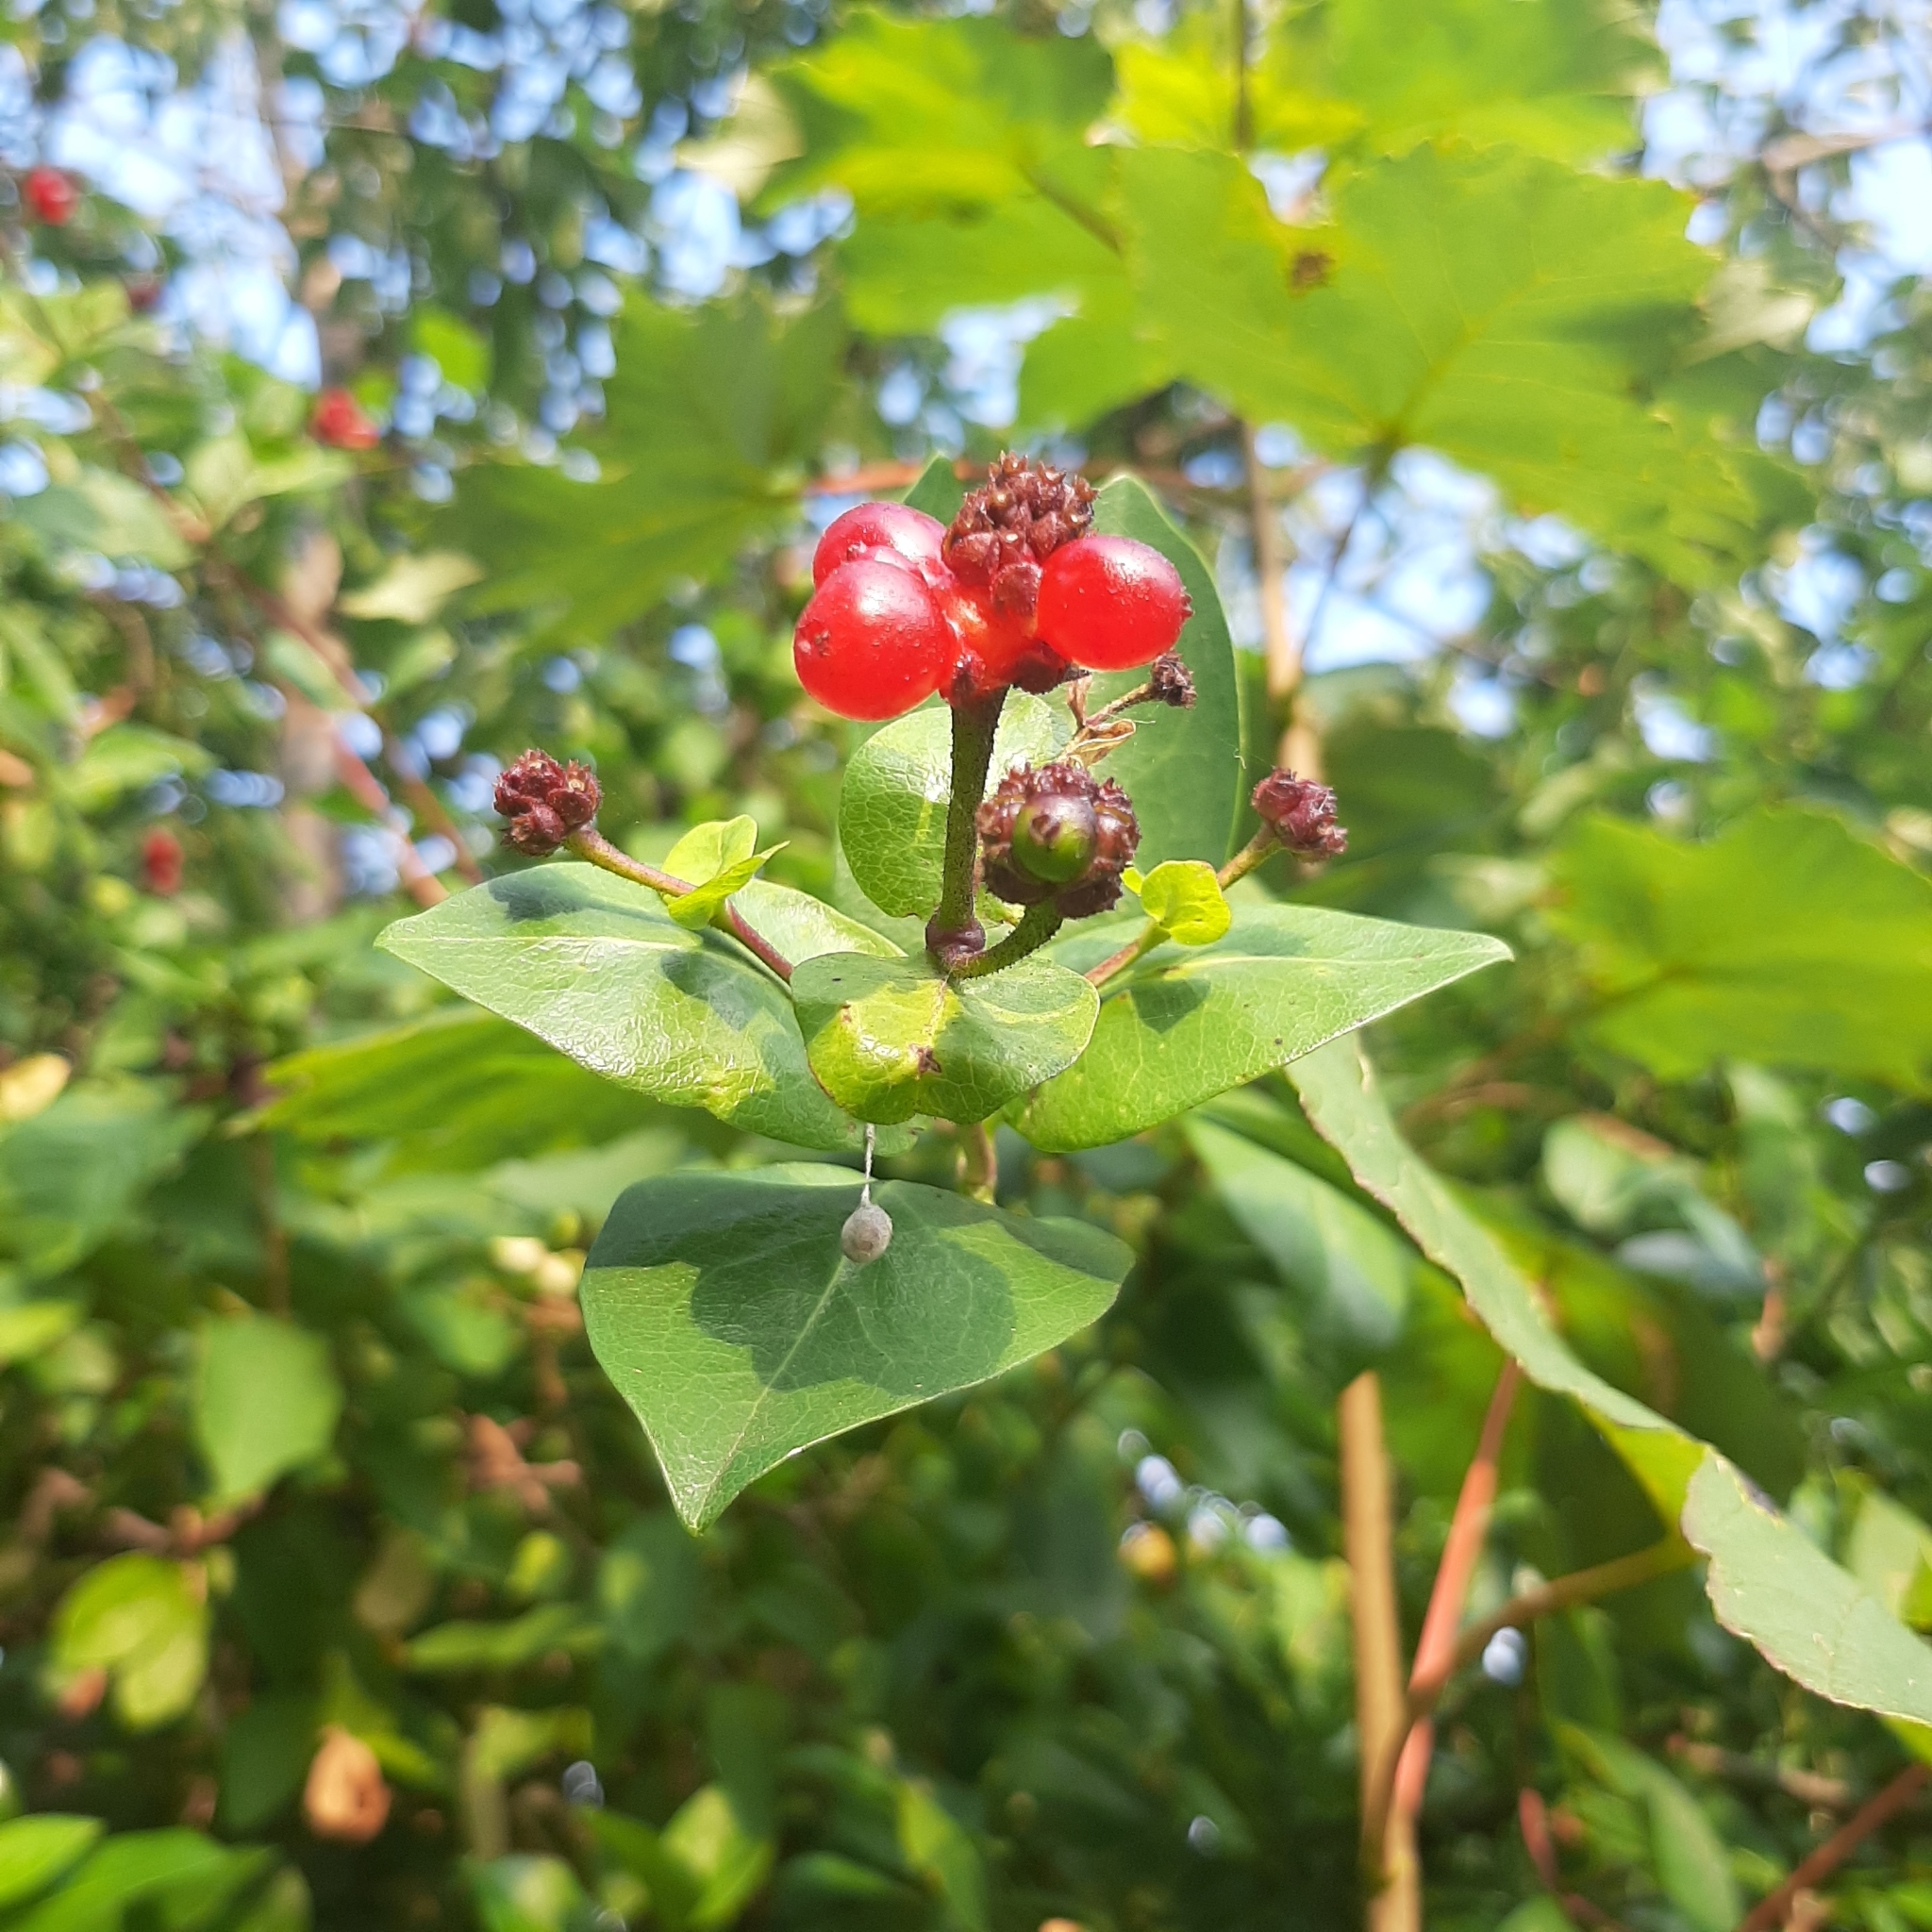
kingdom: Plantae
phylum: Tracheophyta
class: Magnoliopsida
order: Dipsacales
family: Caprifoliaceae
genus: Lonicera
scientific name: Lonicera periclymenum
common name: European honeysuckle
